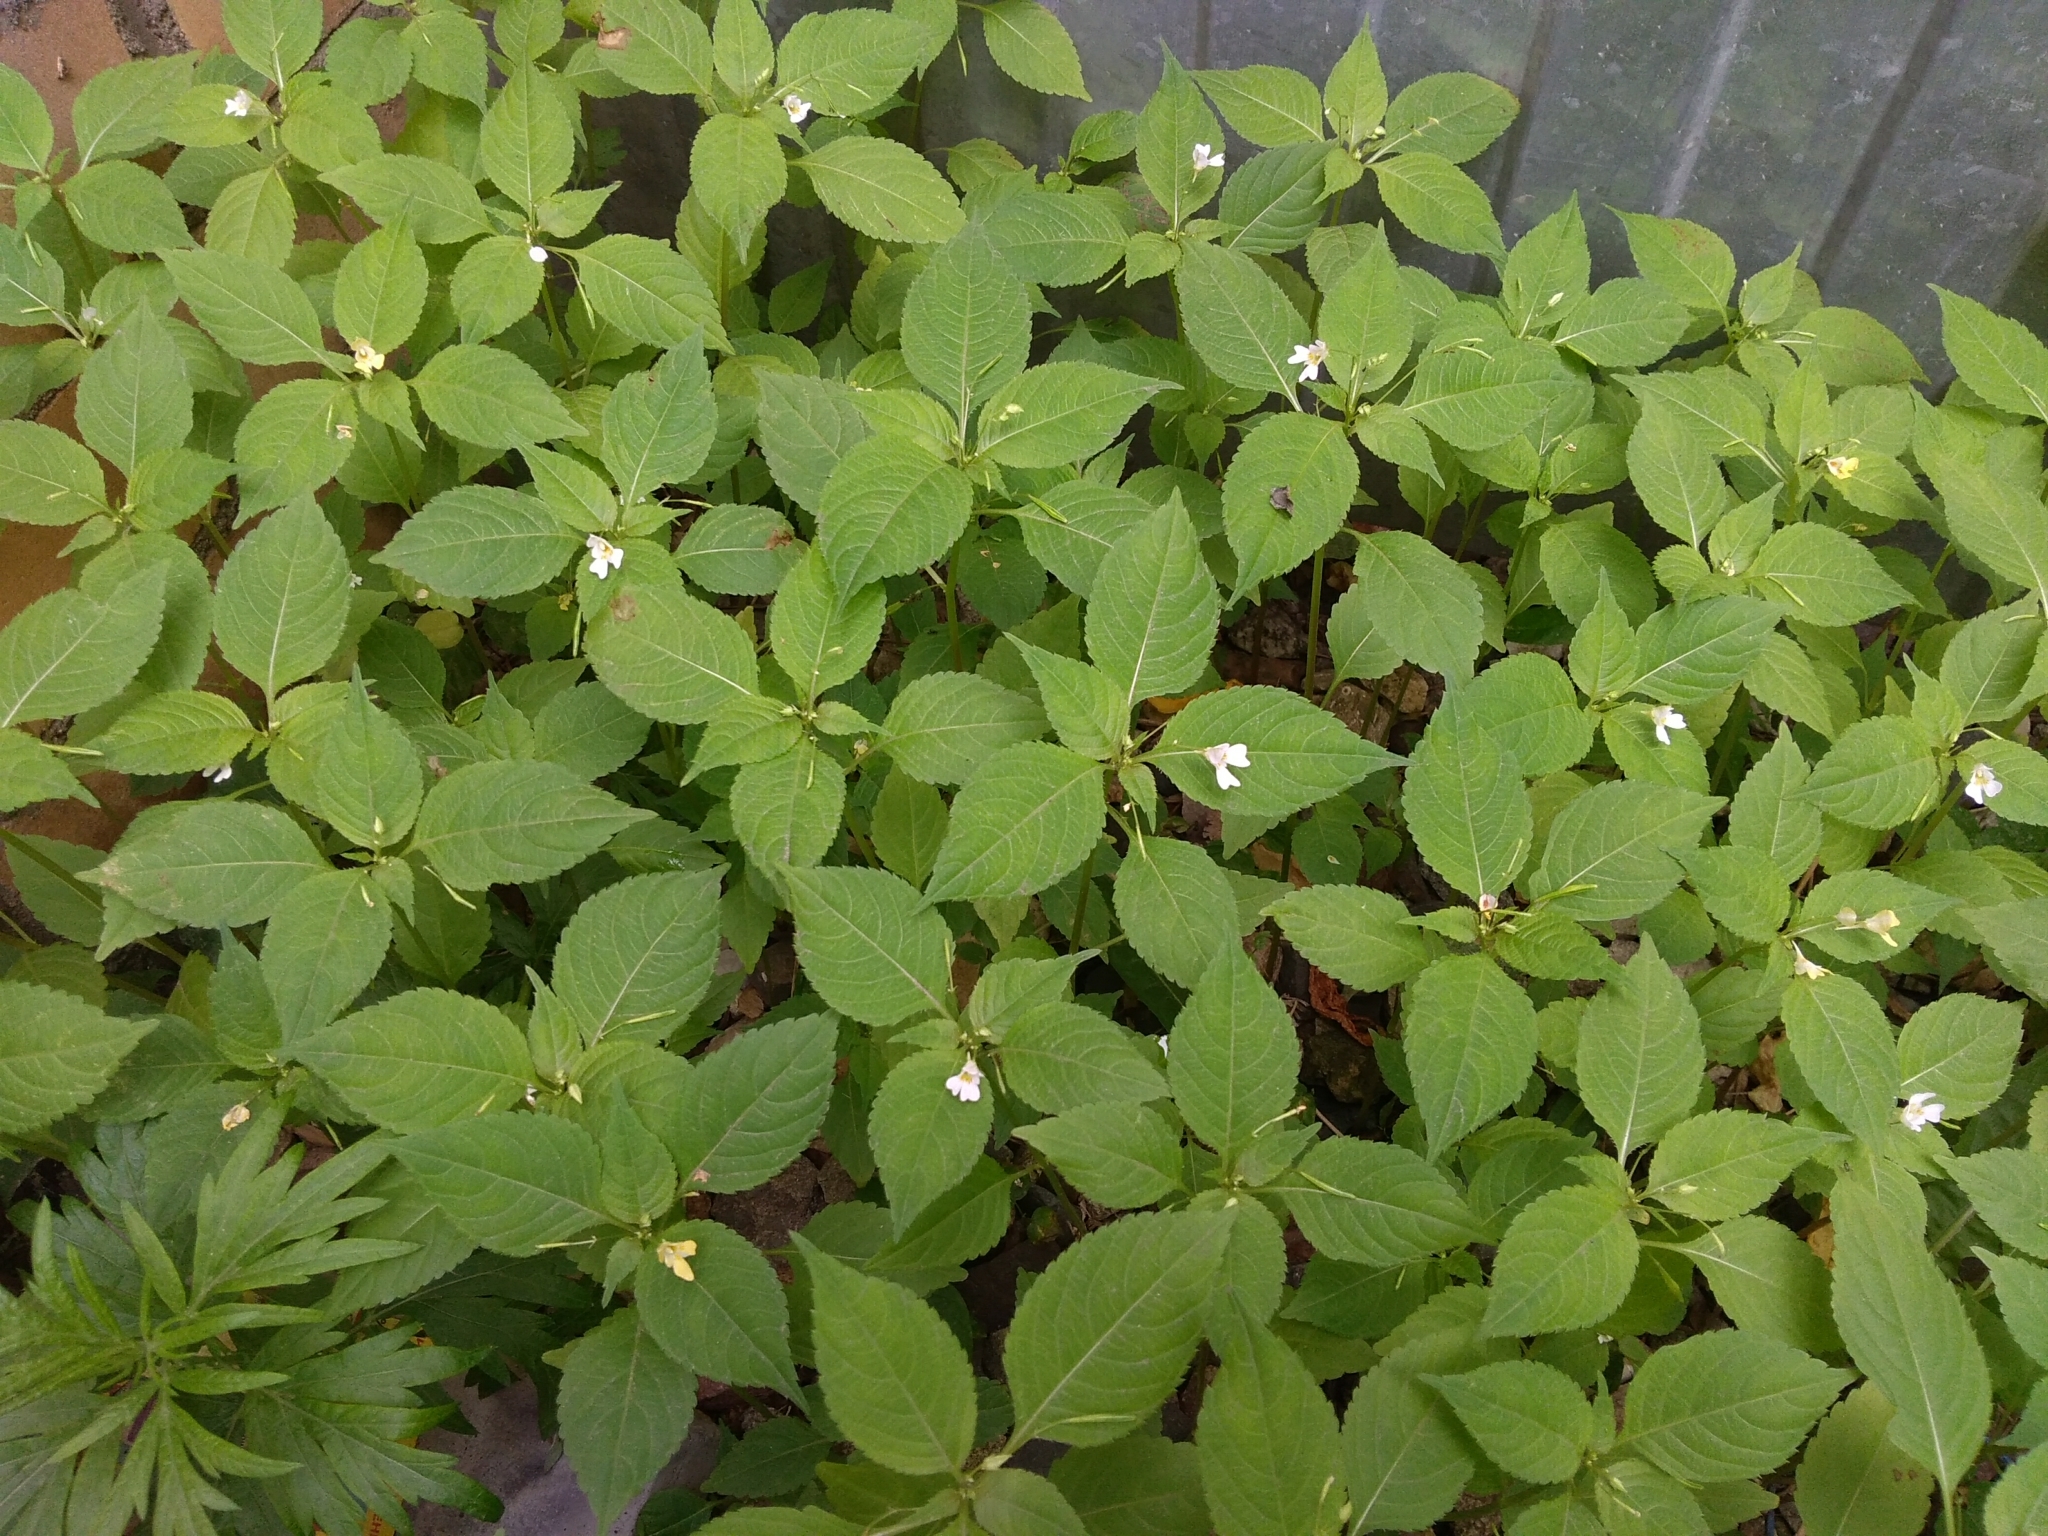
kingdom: Plantae
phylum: Tracheophyta
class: Magnoliopsida
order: Ericales
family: Balsaminaceae
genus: Impatiens
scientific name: Impatiens parviflora
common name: Small balsam
